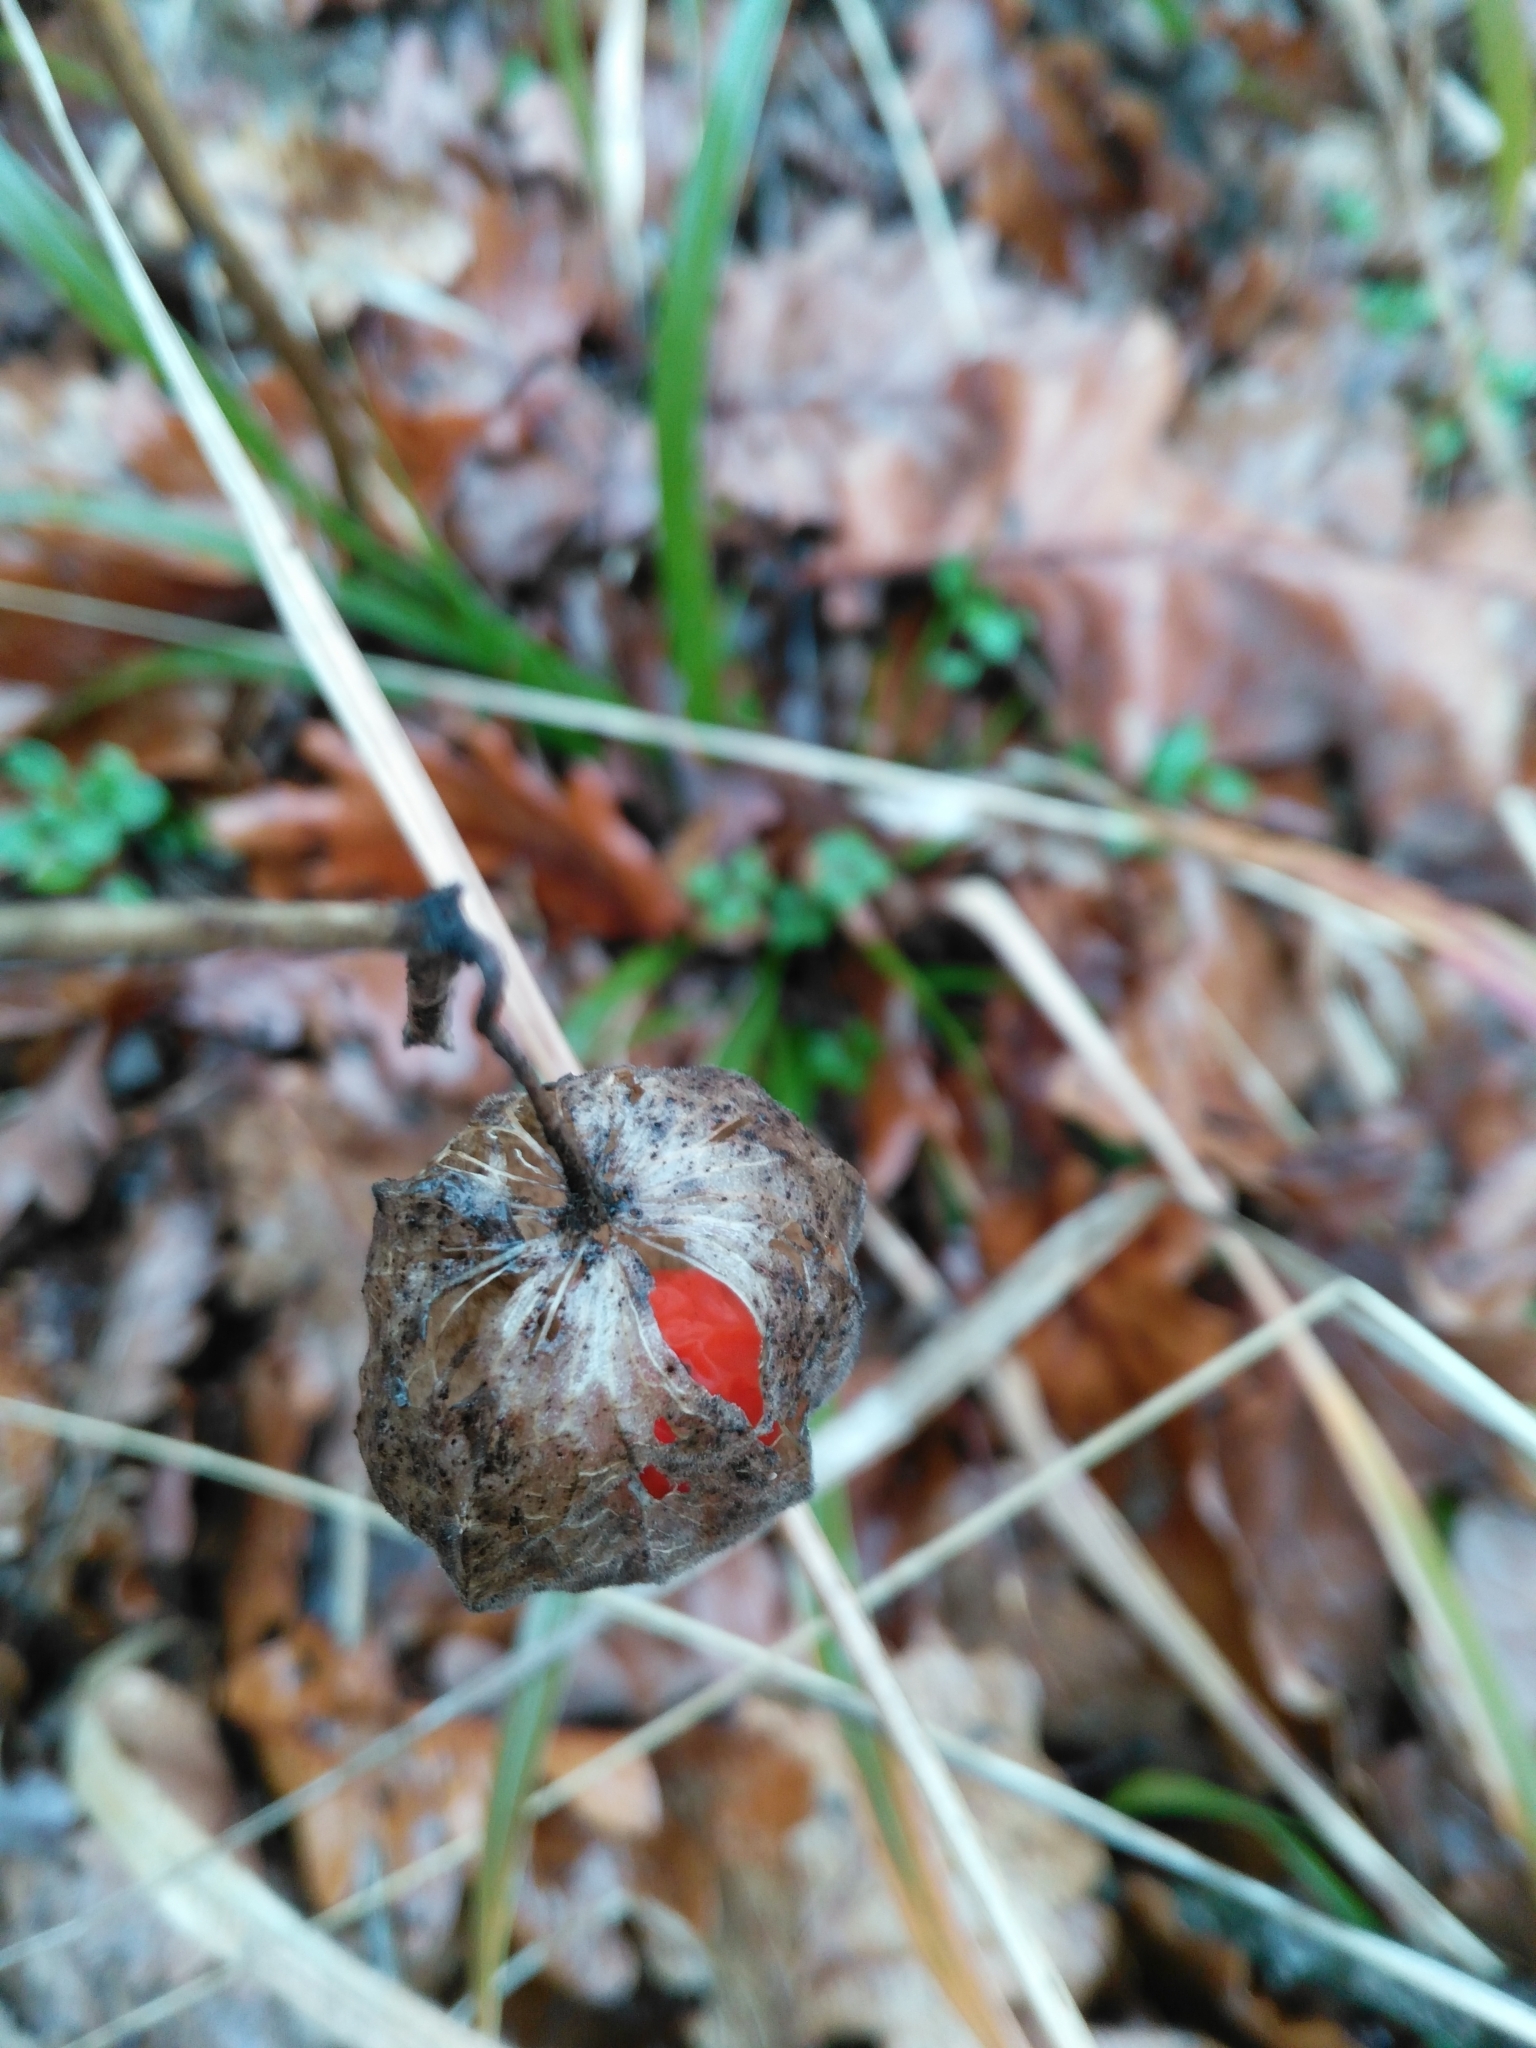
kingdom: Plantae
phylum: Tracheophyta
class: Magnoliopsida
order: Solanales
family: Solanaceae
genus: Alkekengi
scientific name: Alkekengi officinarum
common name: Japanese-lantern
